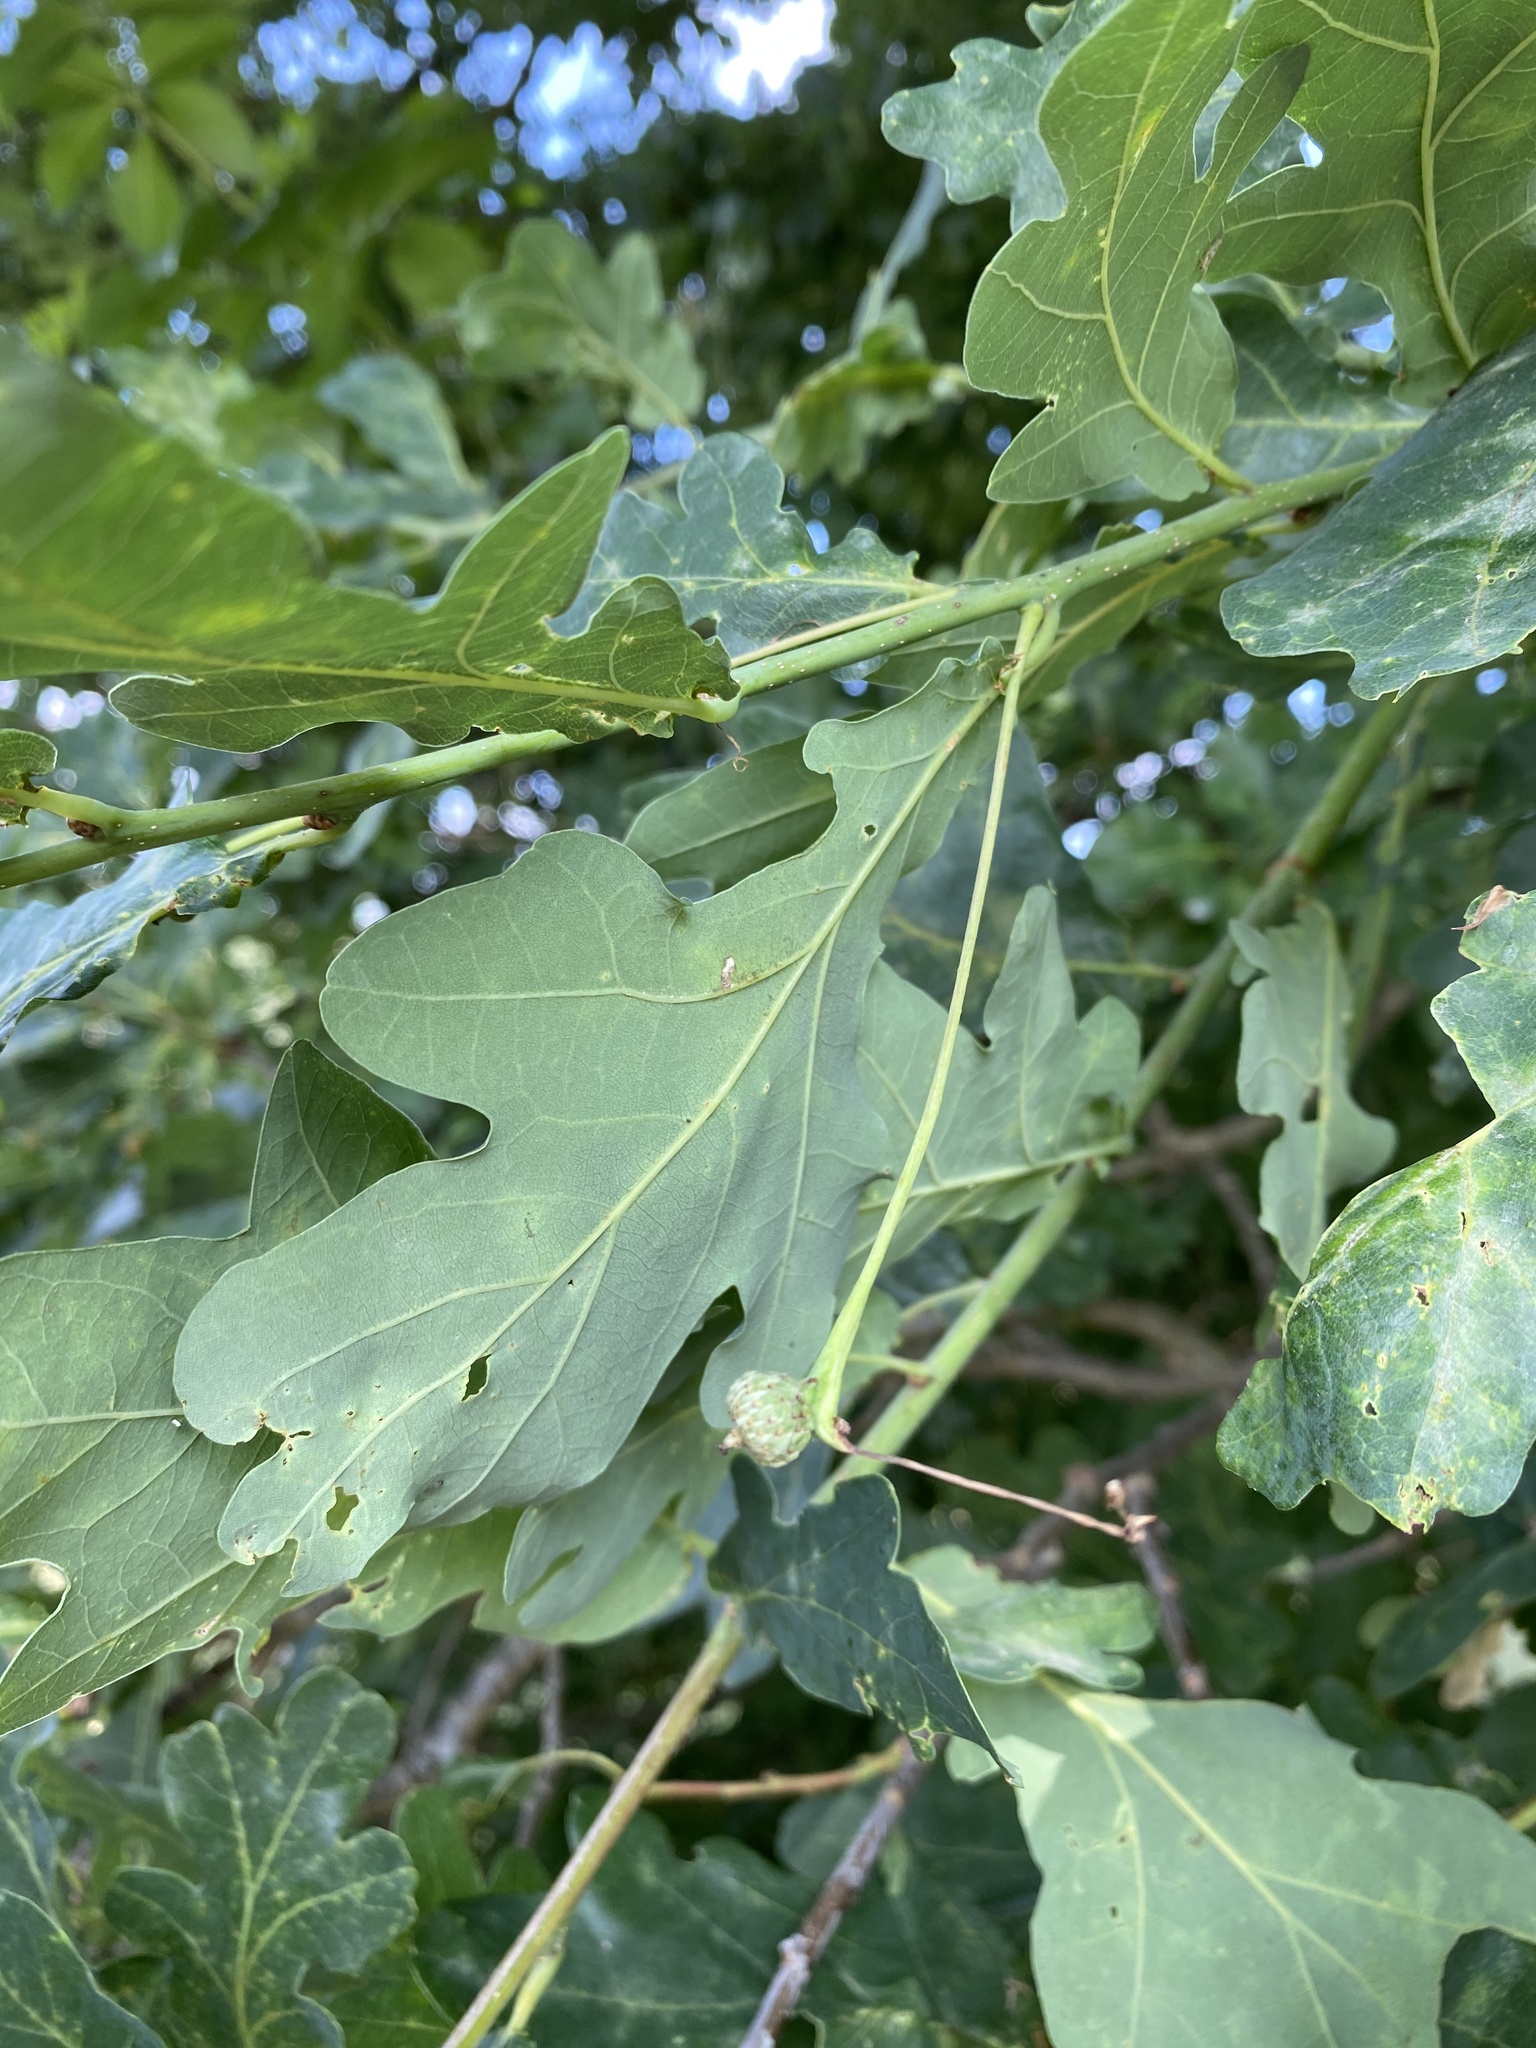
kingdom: Plantae
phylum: Tracheophyta
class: Magnoliopsida
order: Fagales
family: Fagaceae
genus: Quercus
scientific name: Quercus robur
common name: Pedunculate oak
